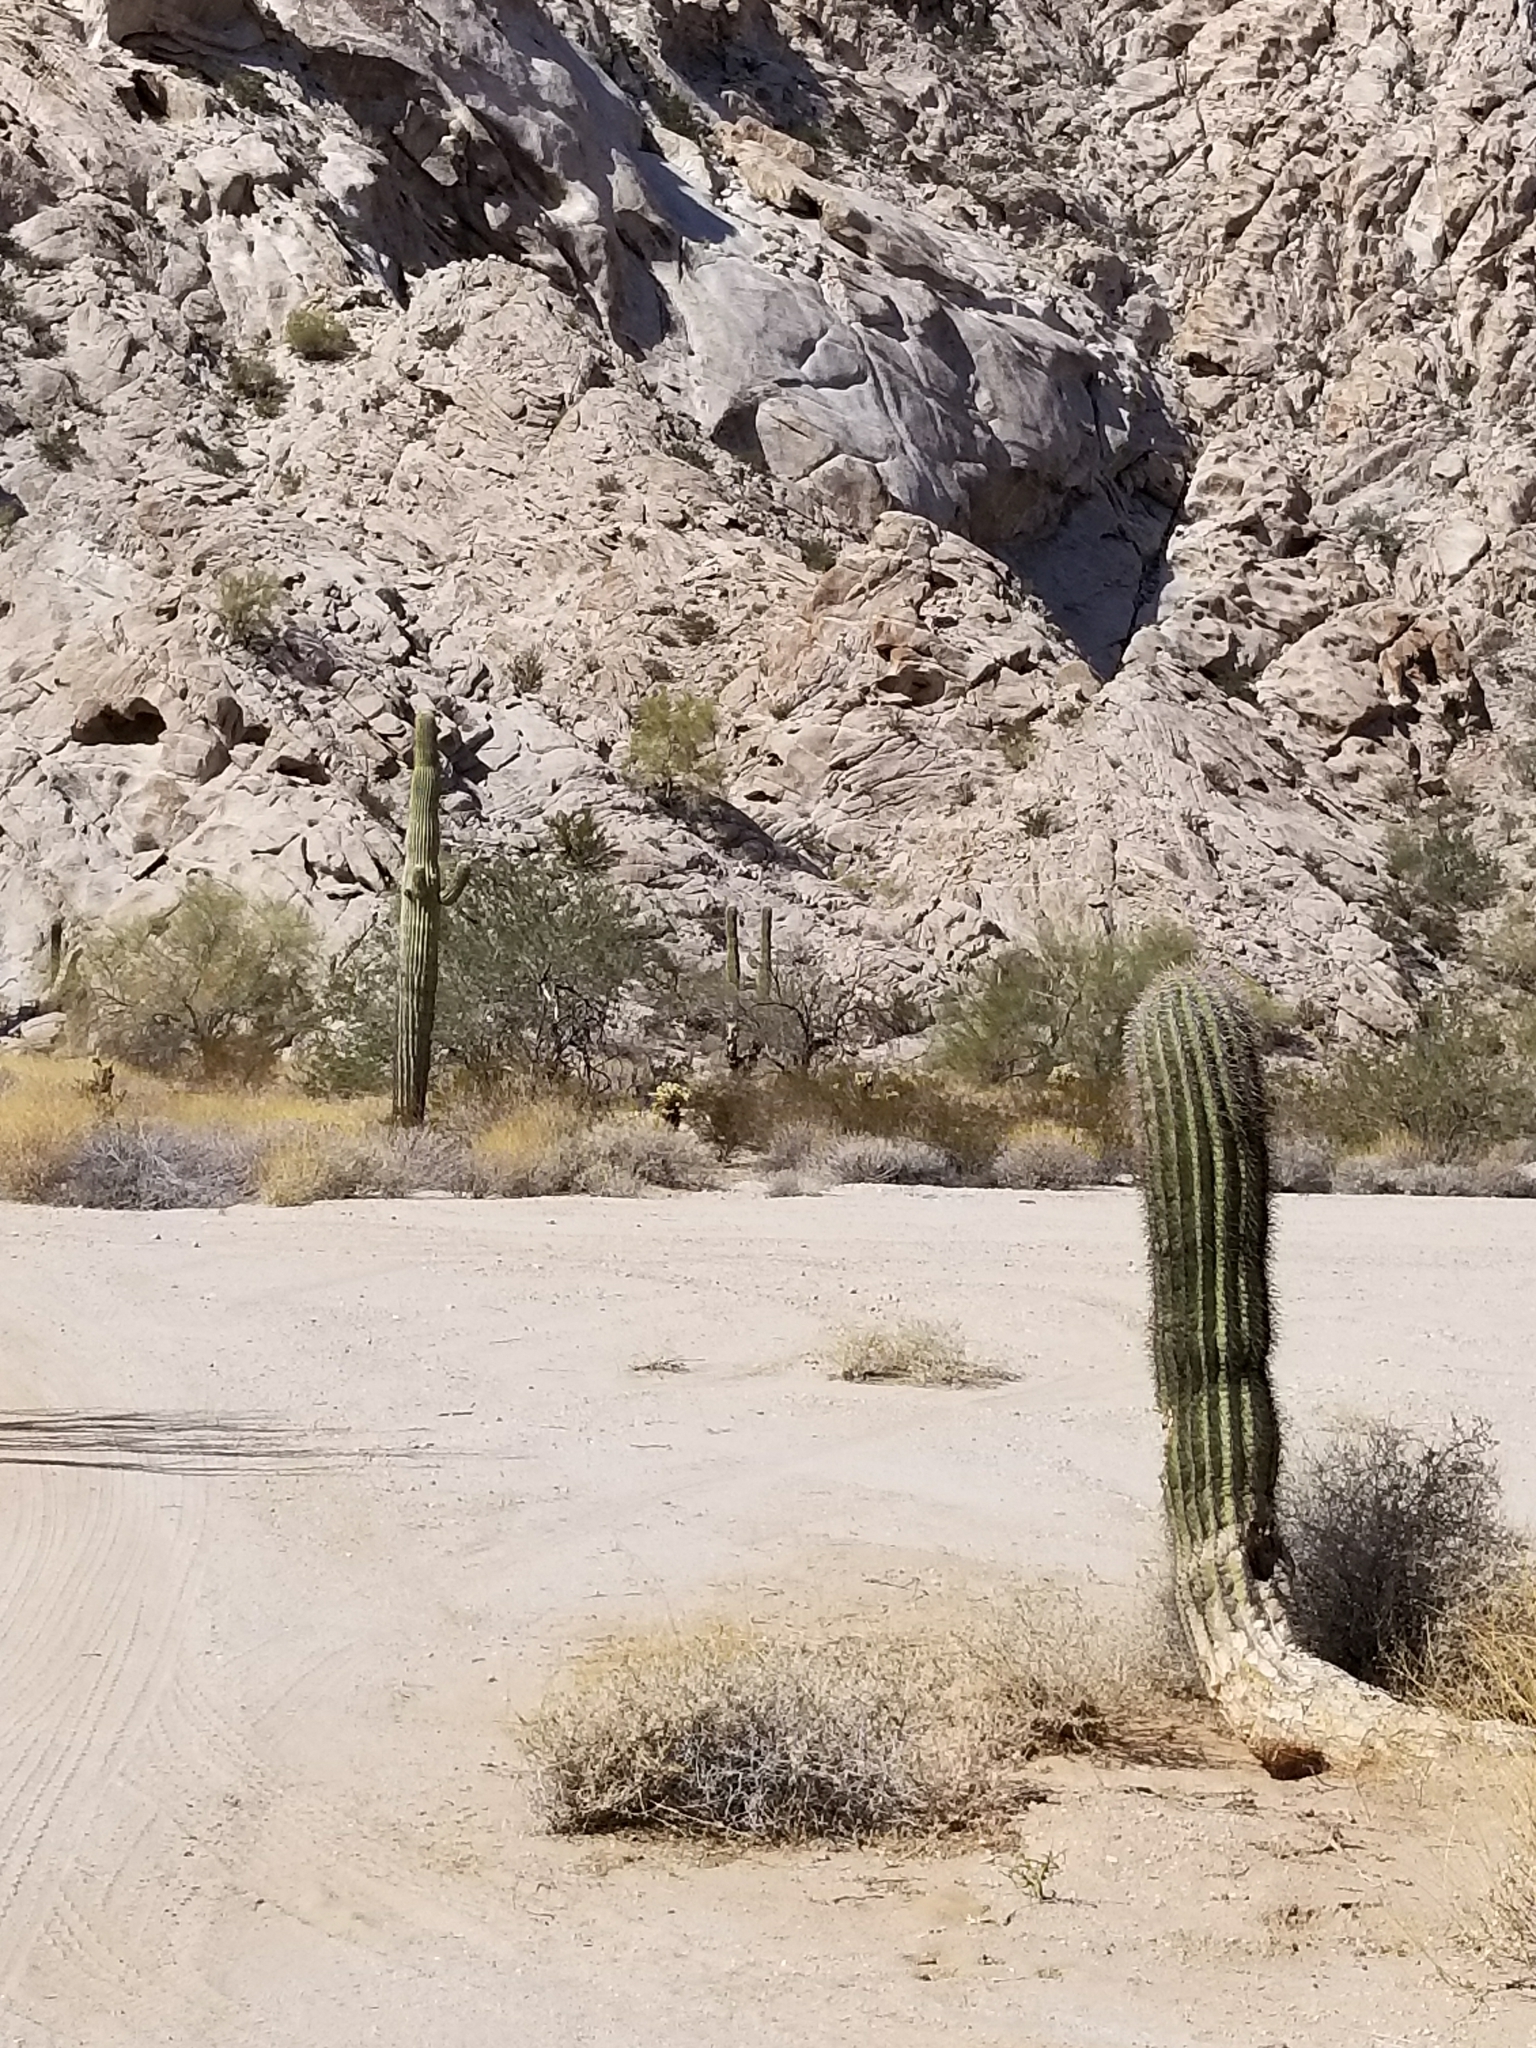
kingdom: Plantae
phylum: Tracheophyta
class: Magnoliopsida
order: Caryophyllales
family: Cactaceae
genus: Carnegiea
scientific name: Carnegiea gigantea
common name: Saguaro
